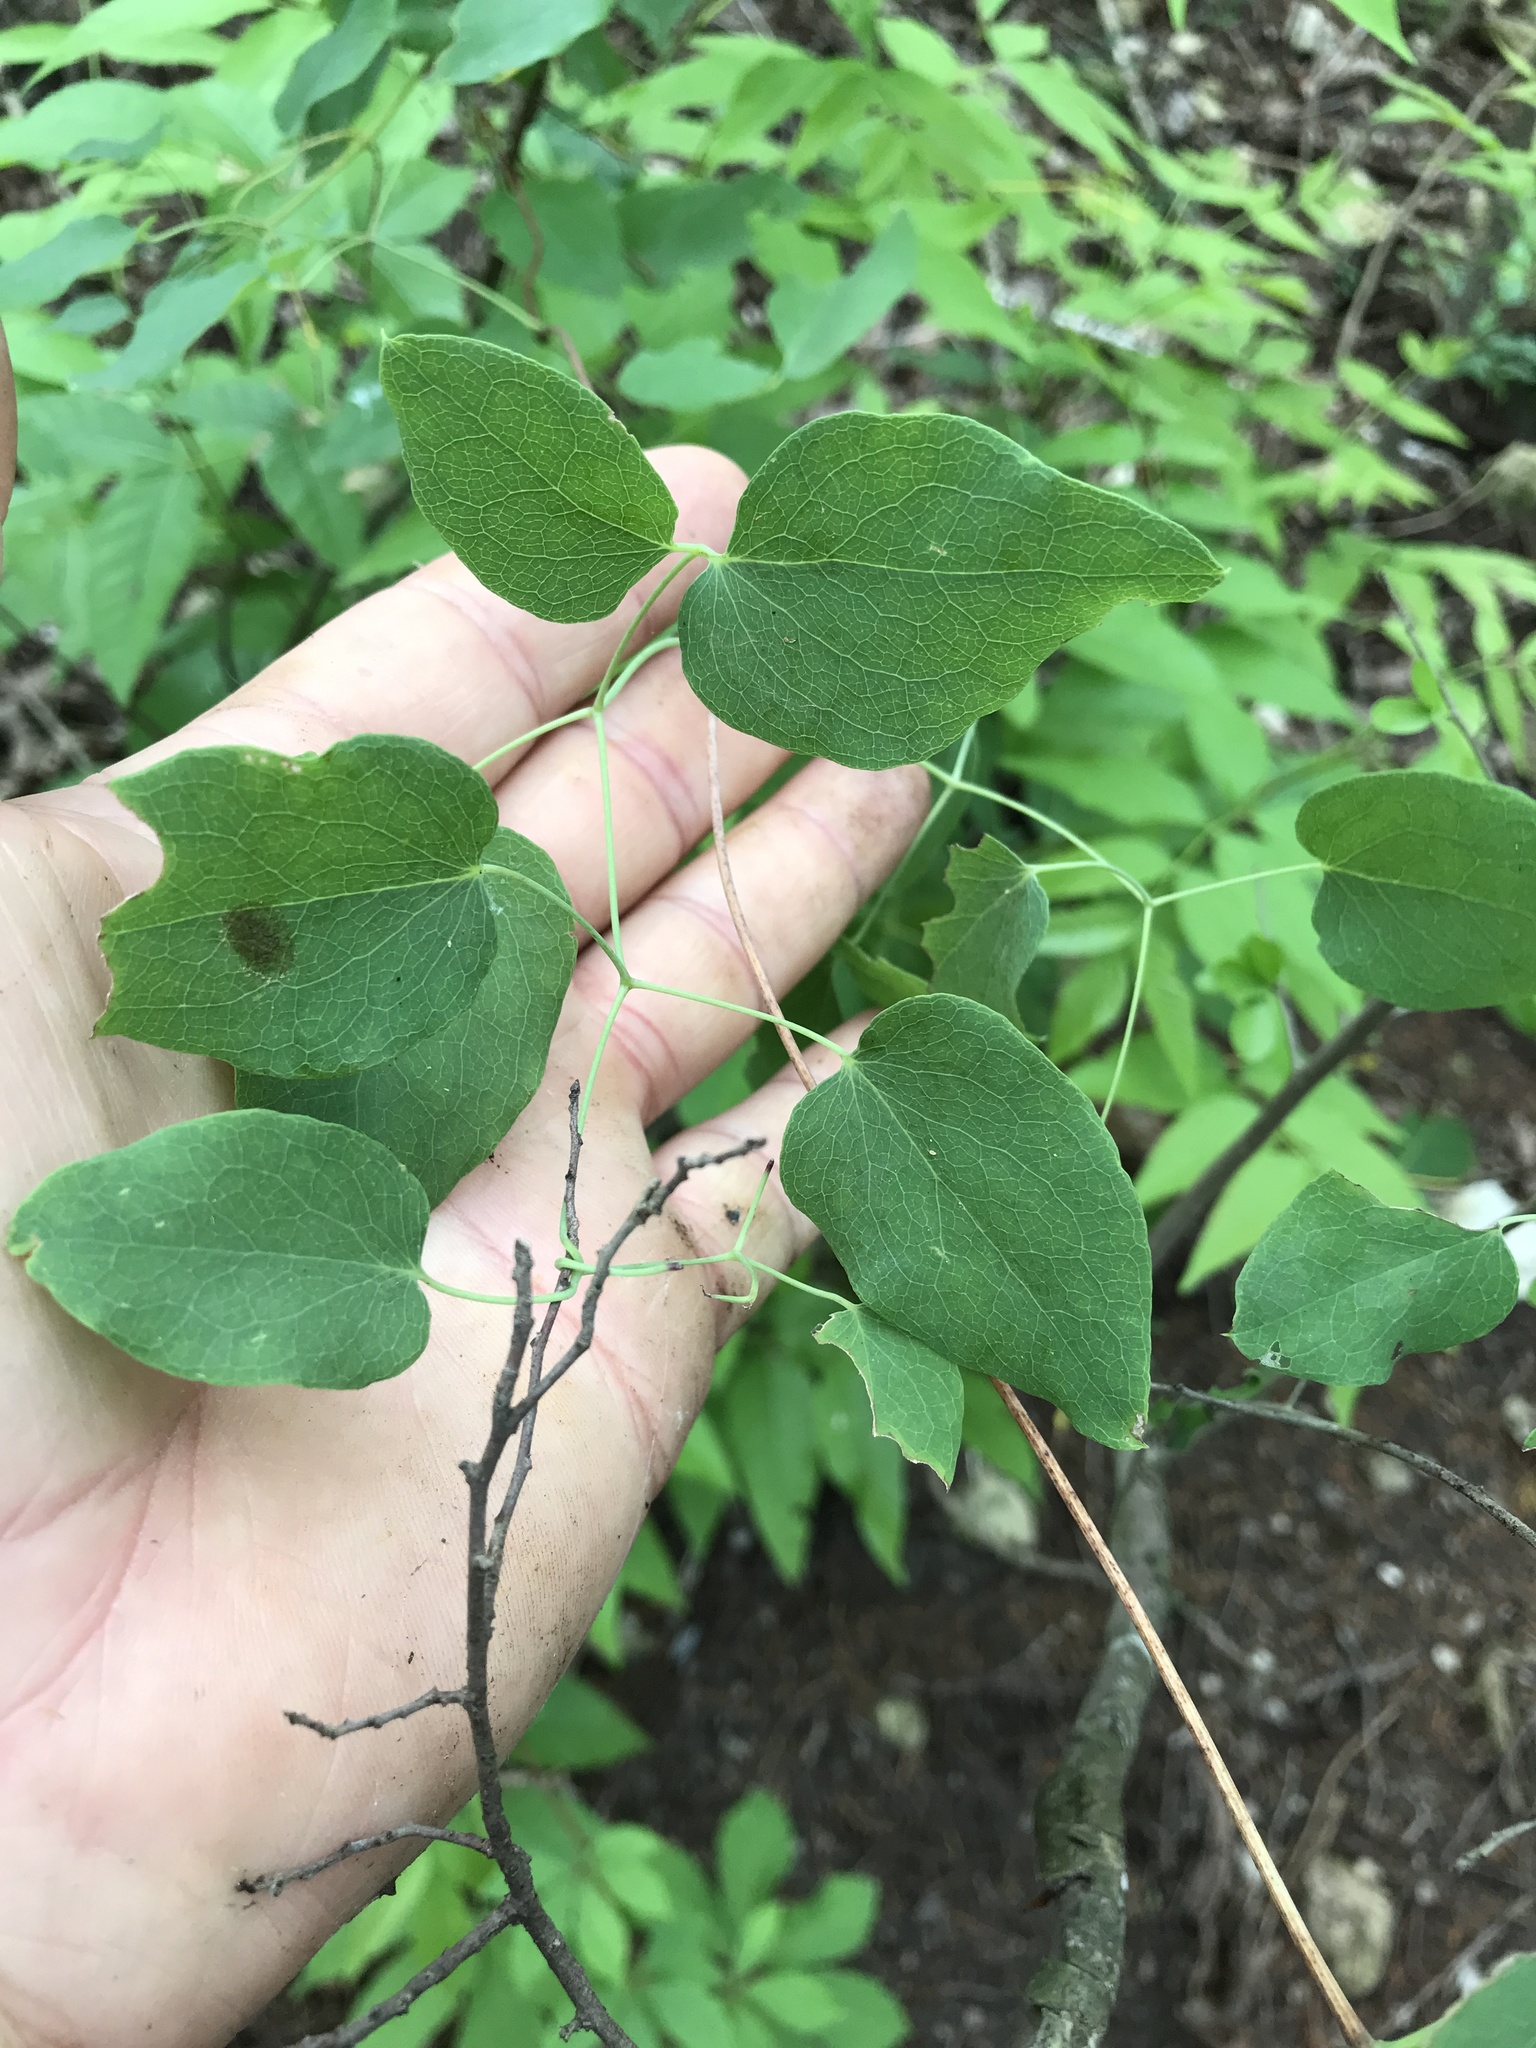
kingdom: Plantae
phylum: Tracheophyta
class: Magnoliopsida
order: Ranunculales
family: Ranunculaceae
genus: Clematis
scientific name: Clematis texensis
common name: Crimson clematis
